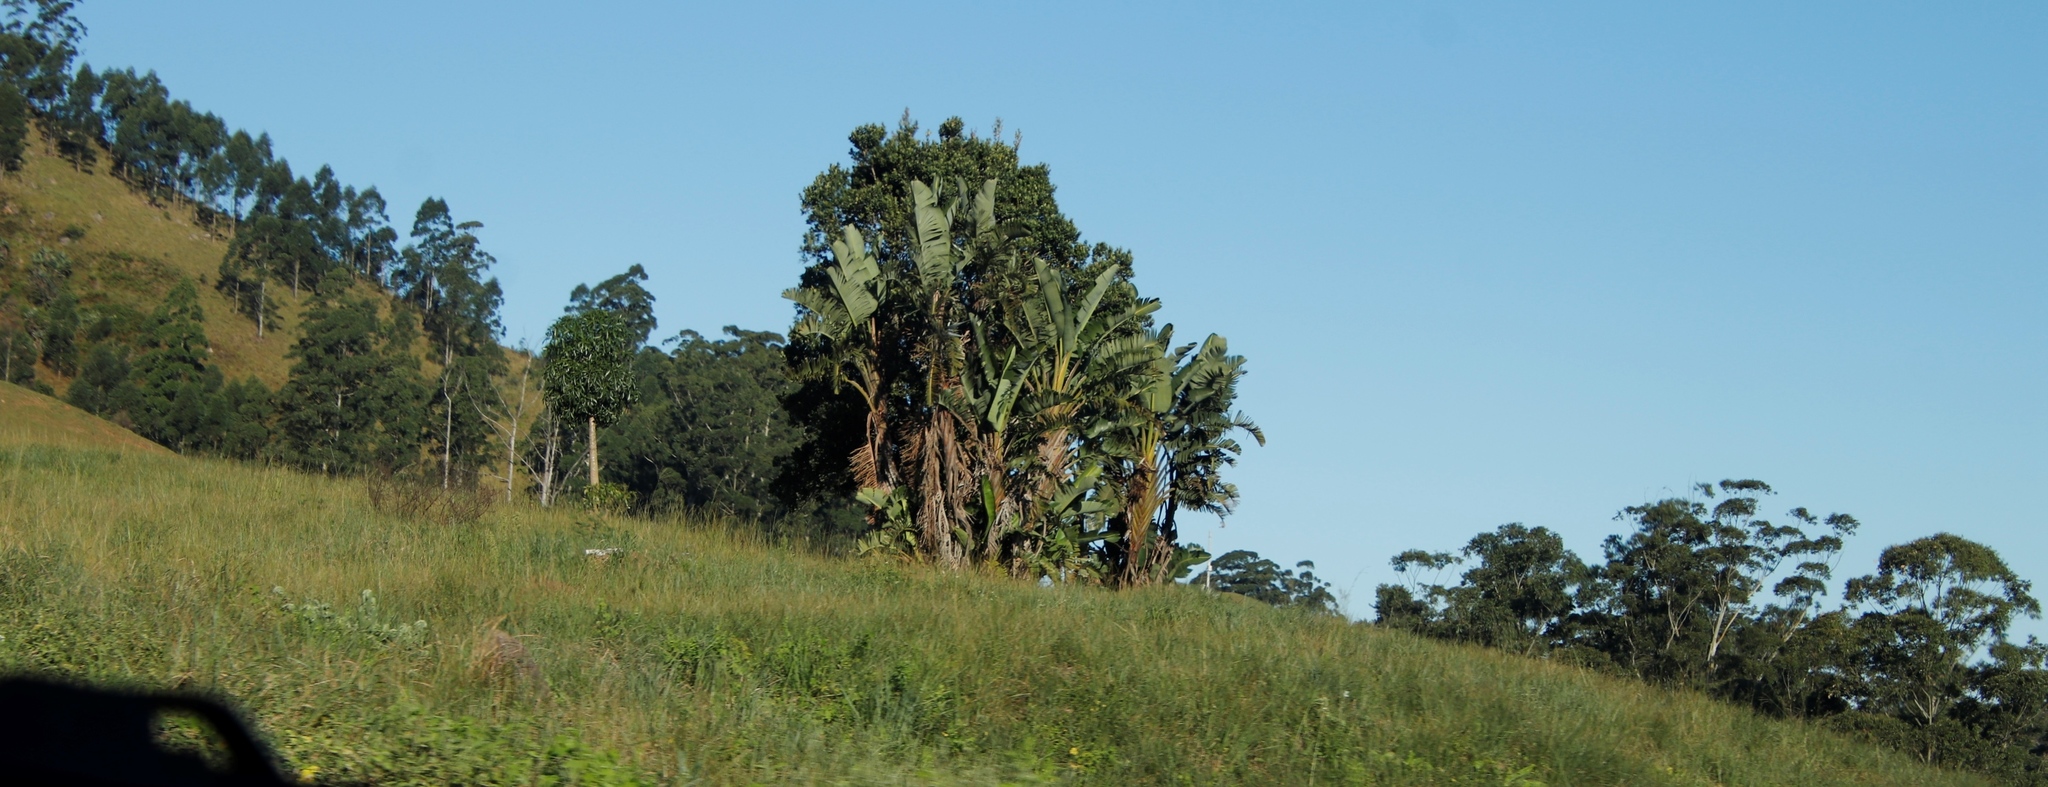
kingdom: Plantae
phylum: Tracheophyta
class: Liliopsida
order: Zingiberales
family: Strelitziaceae
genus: Strelitzia
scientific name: Strelitzia nicolai
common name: Bird-of-paradise tree
